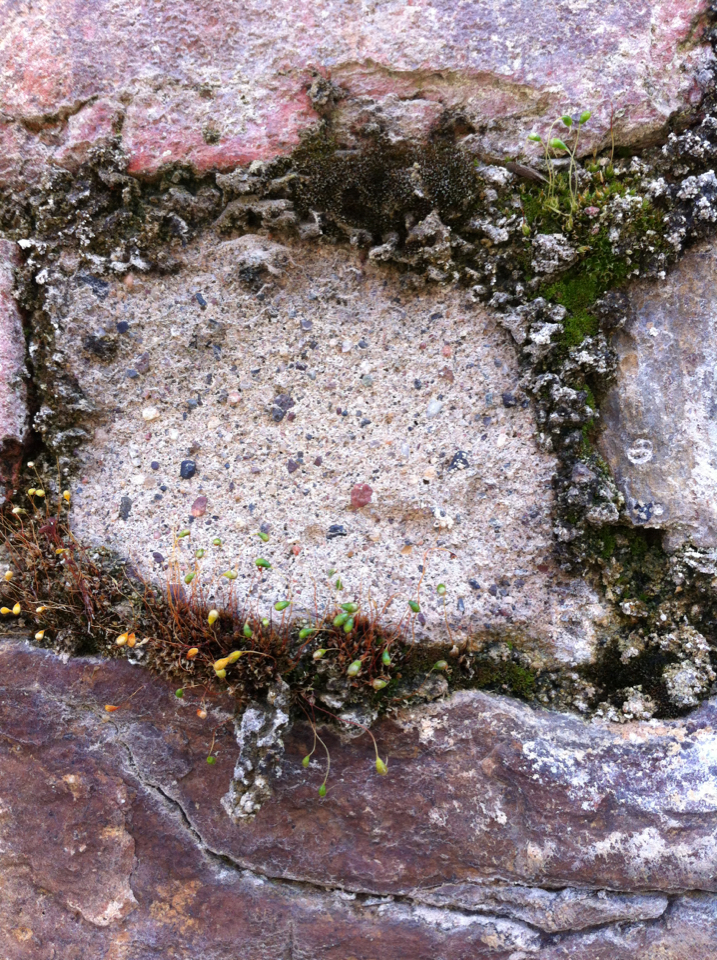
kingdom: Plantae
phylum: Bryophyta
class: Bryopsida
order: Funariales
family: Funariaceae
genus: Funaria
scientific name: Funaria hygrometrica
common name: Common cord moss
